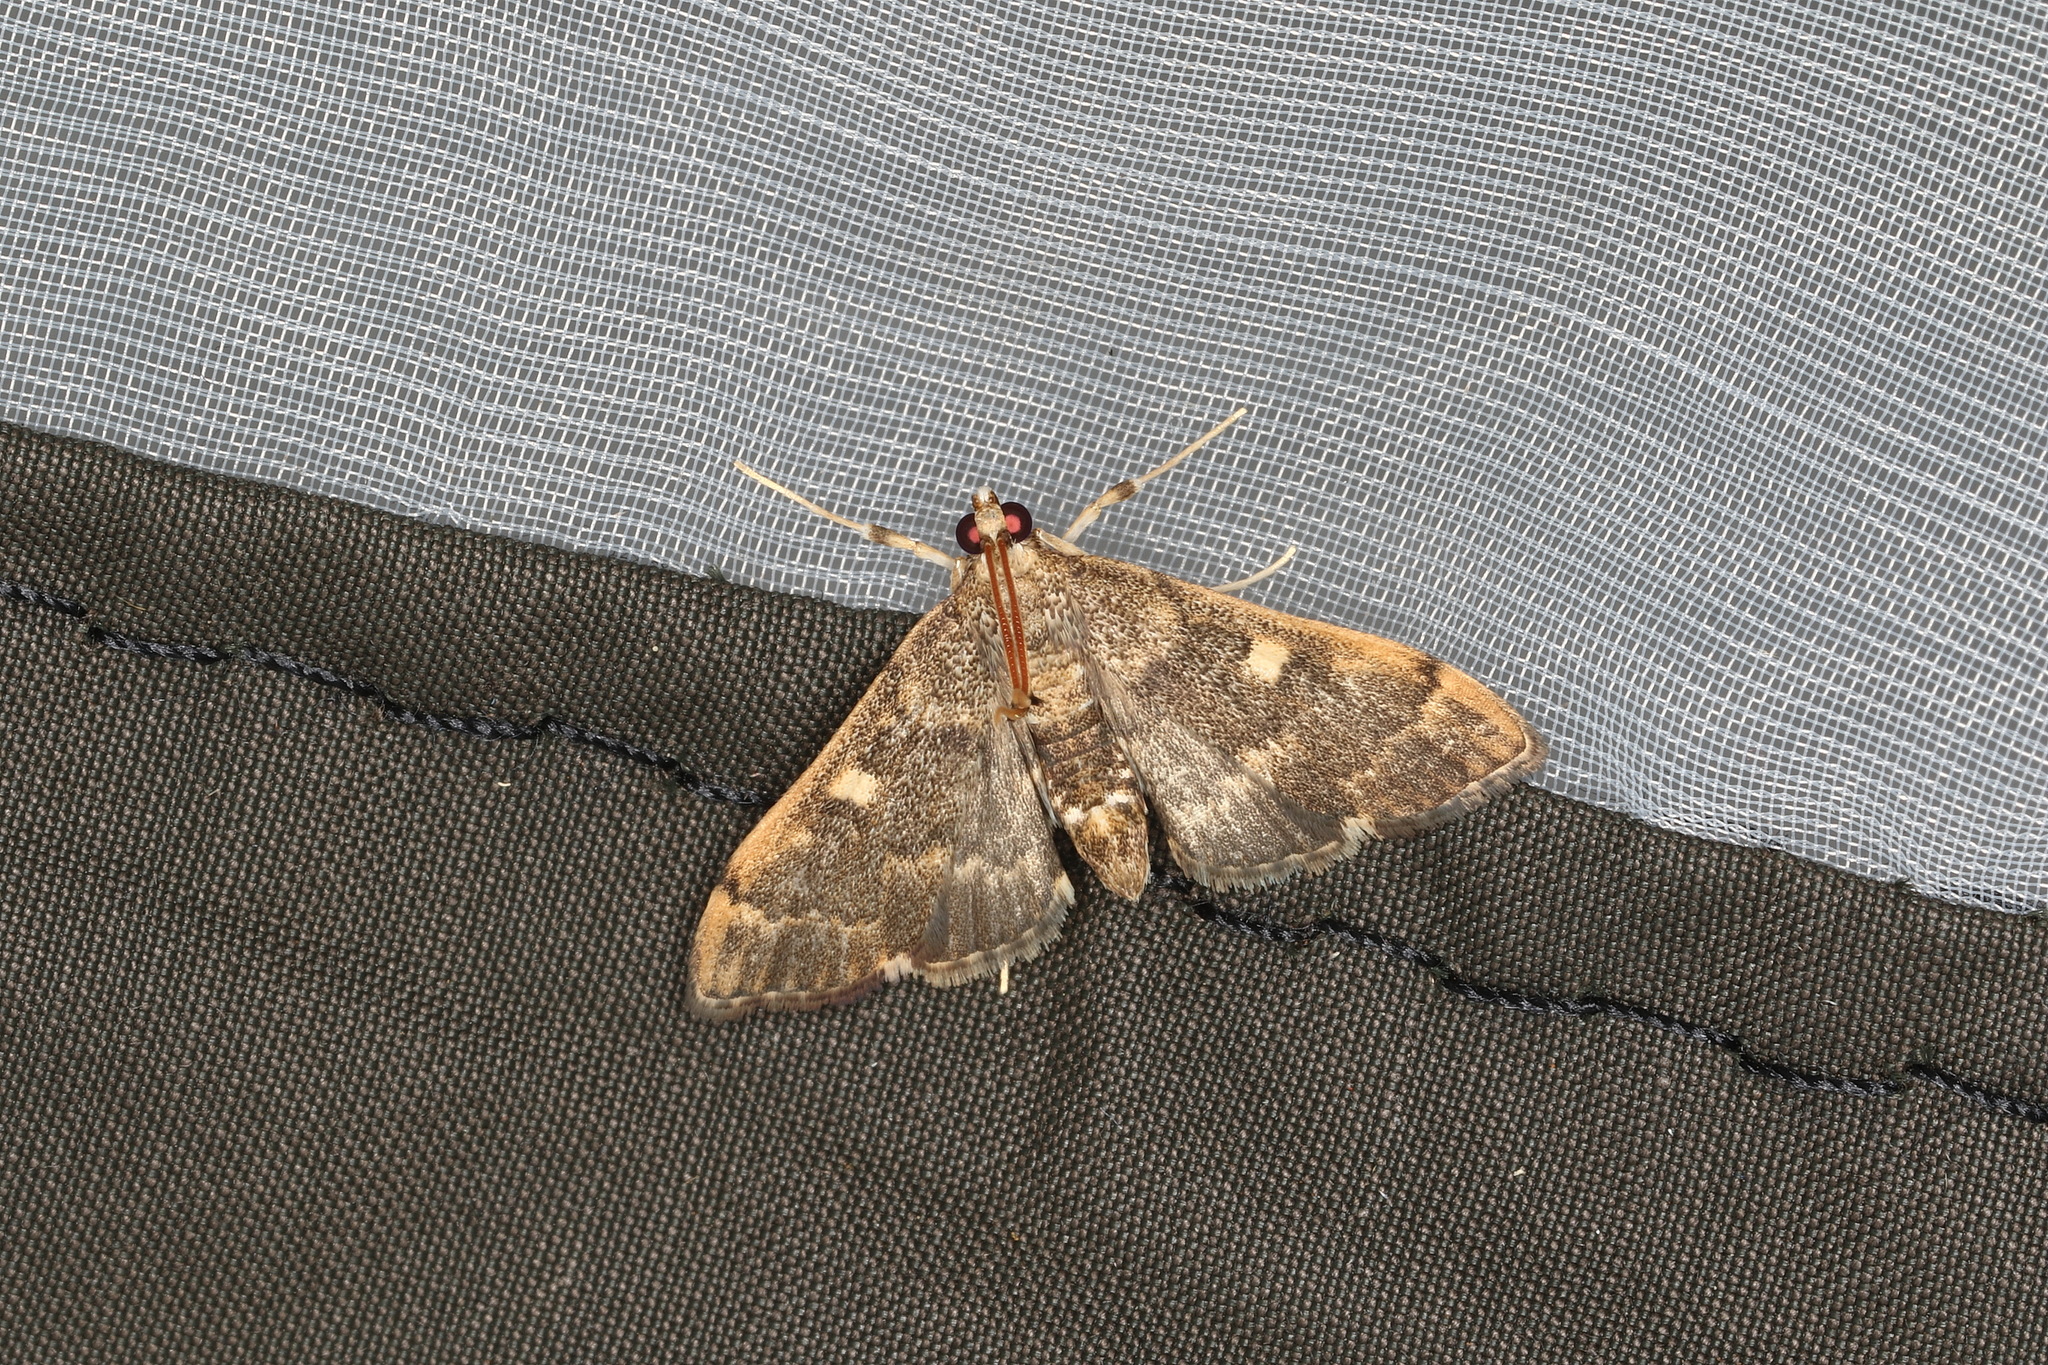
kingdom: Animalia
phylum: Arthropoda
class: Insecta
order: Lepidoptera
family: Crambidae
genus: Nacoleia
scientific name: Nacoleia rhoeoalis
